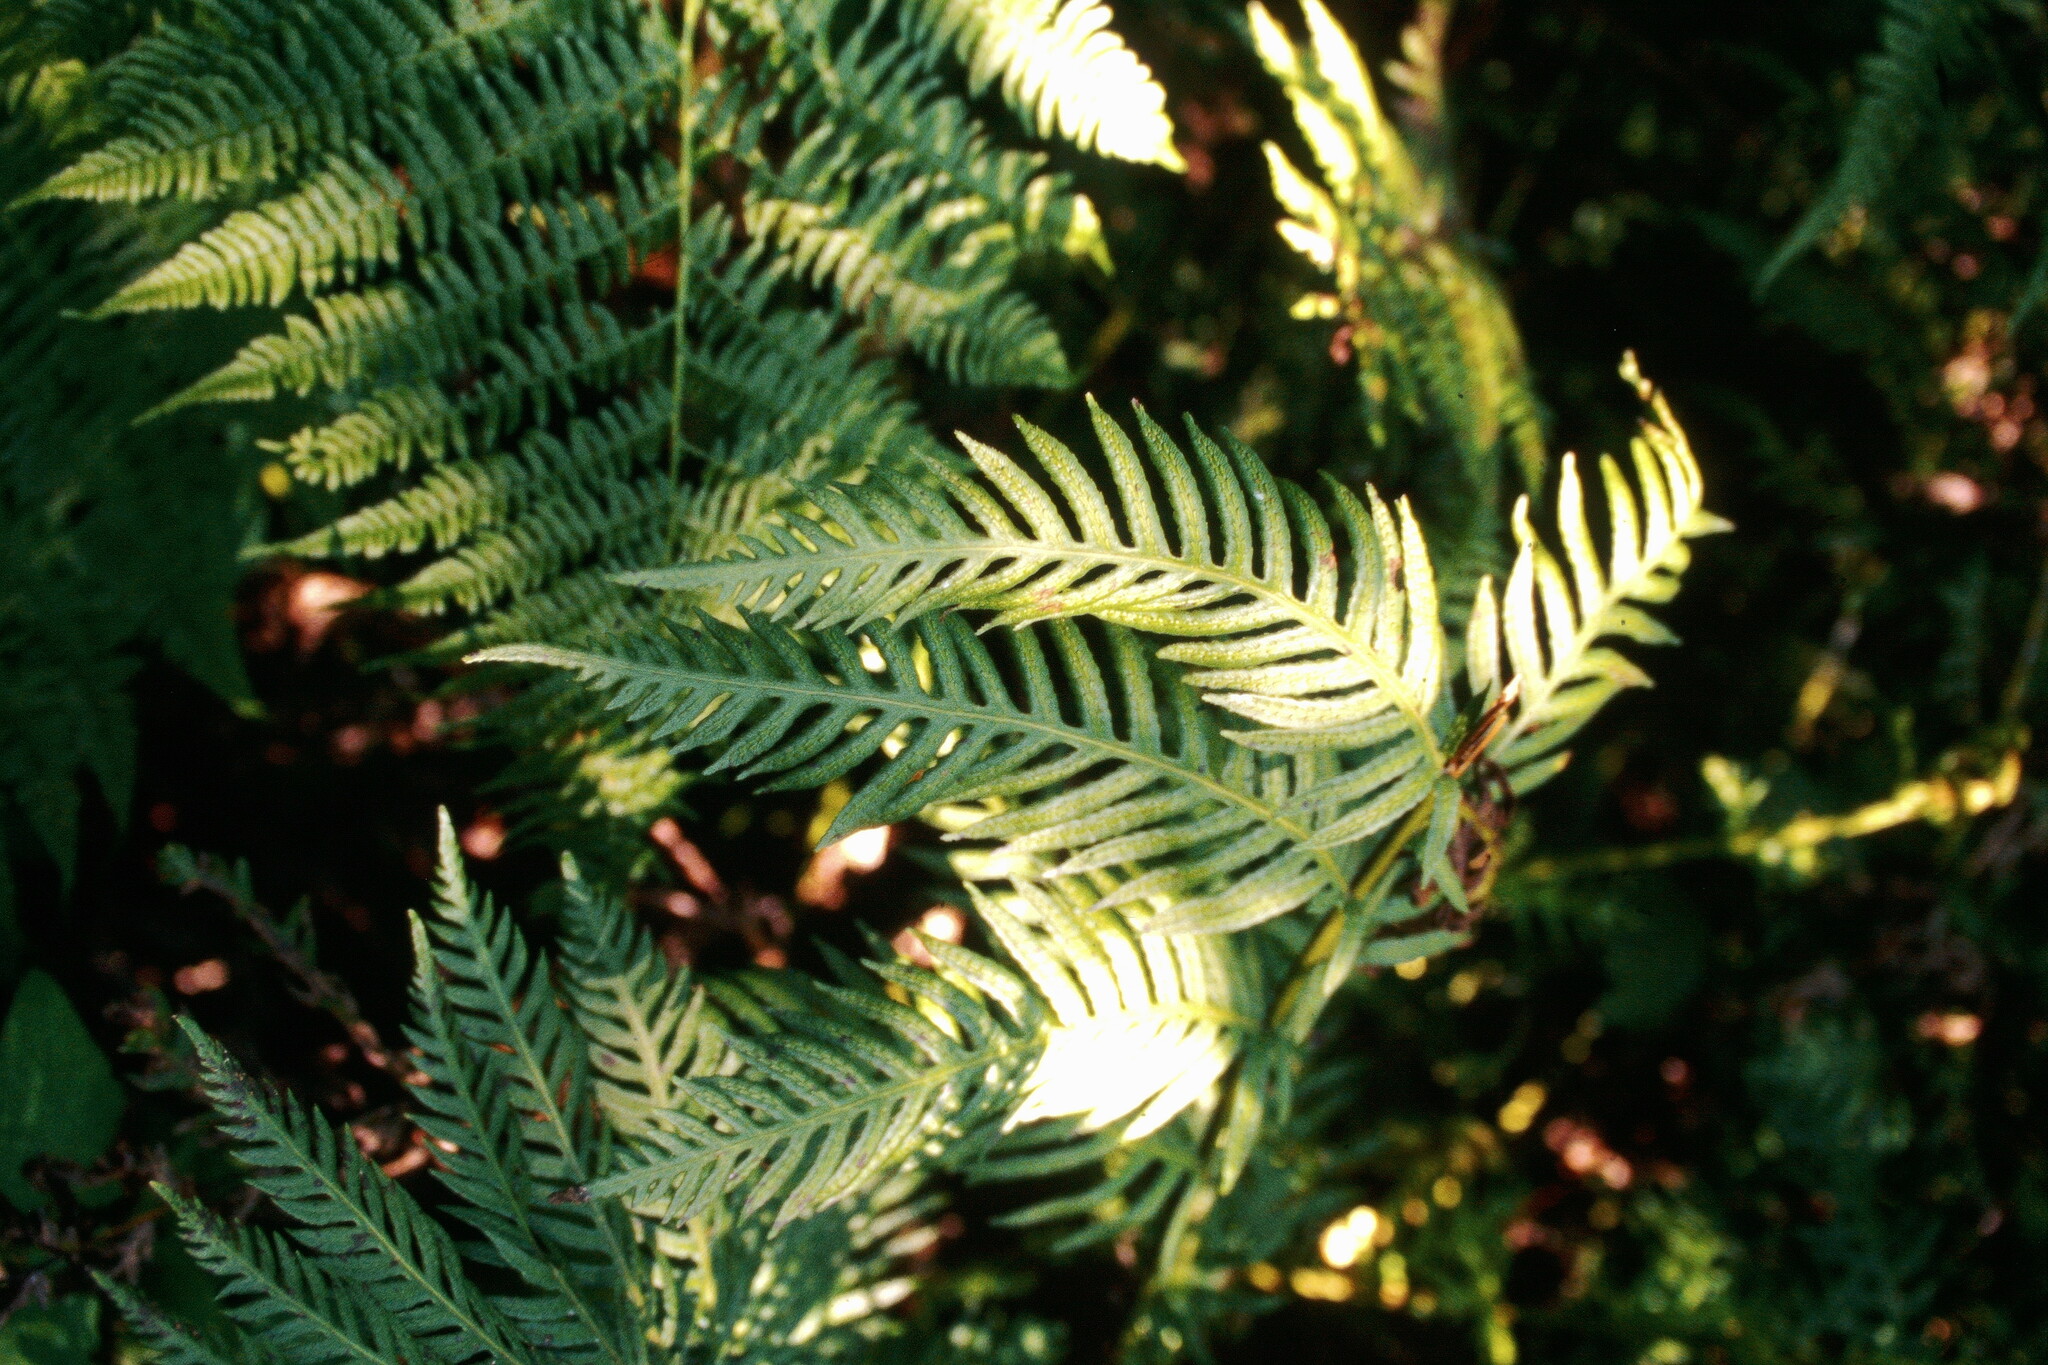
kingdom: Plantae
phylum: Tracheophyta
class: Polypodiopsida
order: Polypodiales
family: Blechnaceae
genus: Woodwardia
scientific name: Woodwardia fimbriata
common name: Giant chain fern
